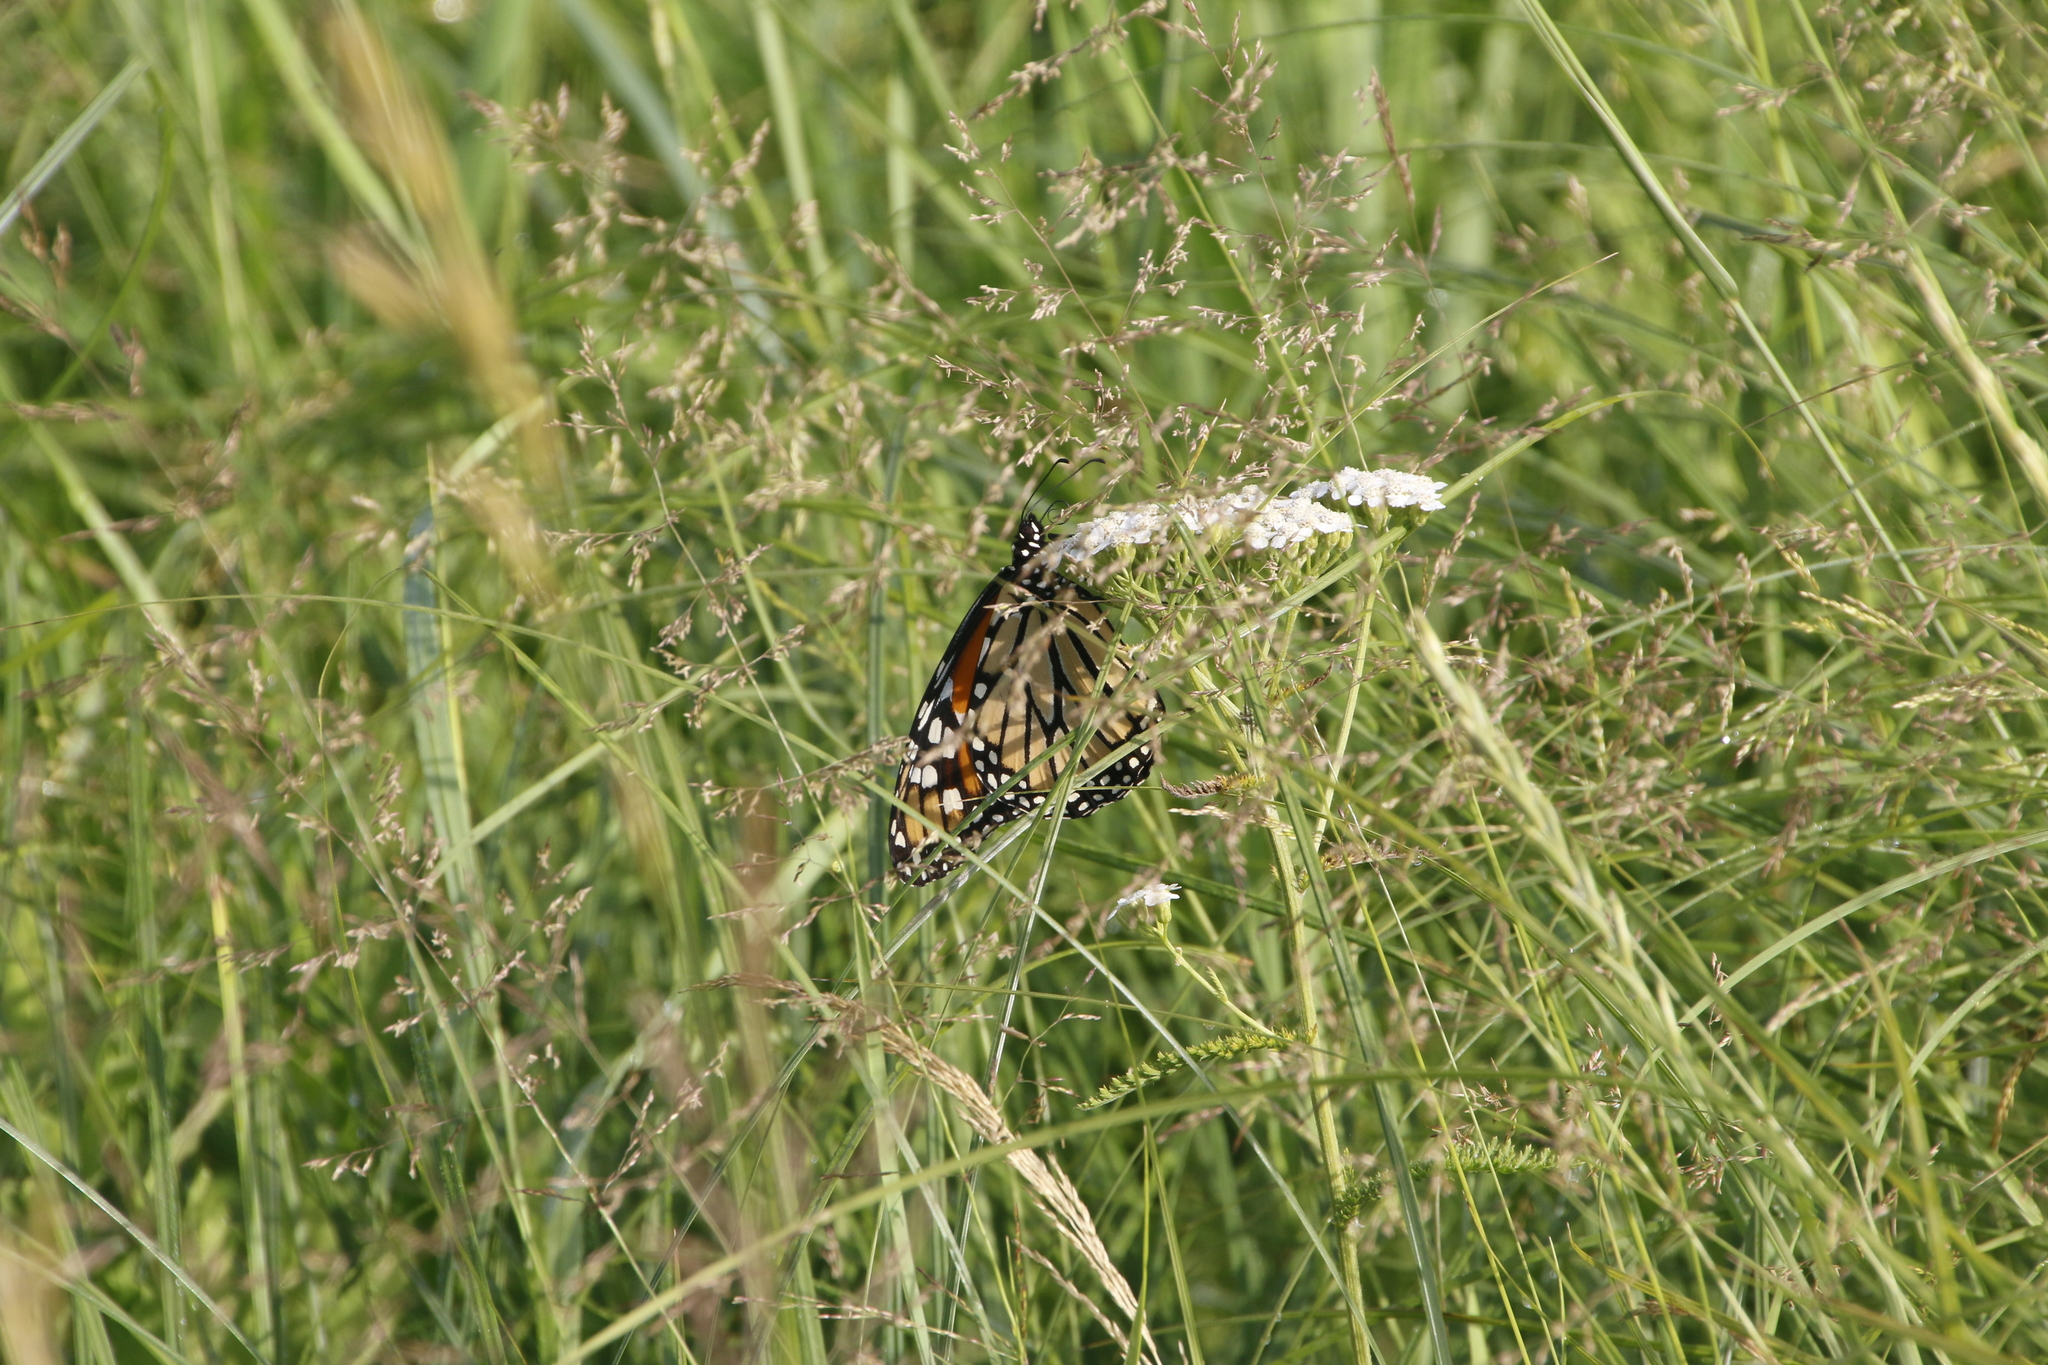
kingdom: Animalia
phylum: Arthropoda
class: Insecta
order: Lepidoptera
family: Nymphalidae
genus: Danaus
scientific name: Danaus plexippus
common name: Monarch
